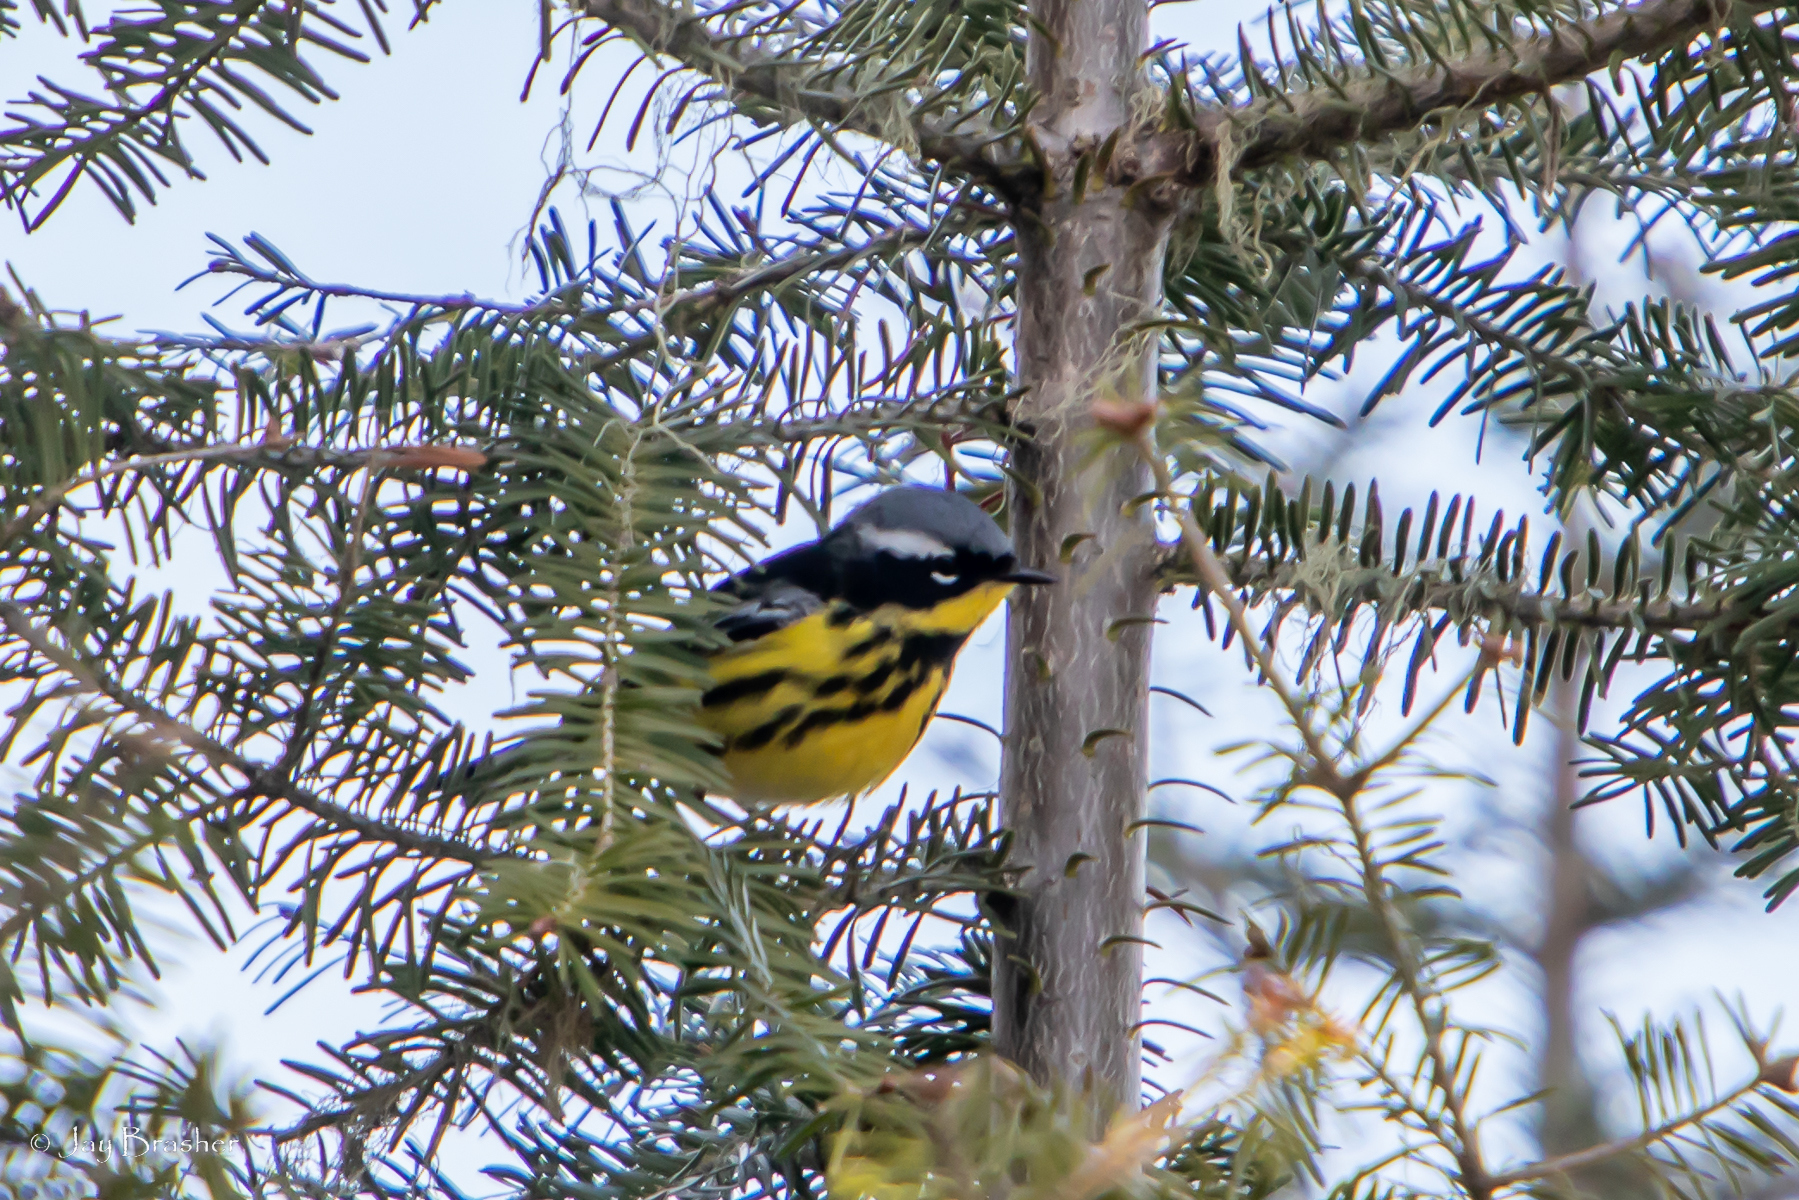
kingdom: Animalia
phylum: Chordata
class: Aves
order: Passeriformes
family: Parulidae
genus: Setophaga
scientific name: Setophaga magnolia
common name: Magnolia warbler
